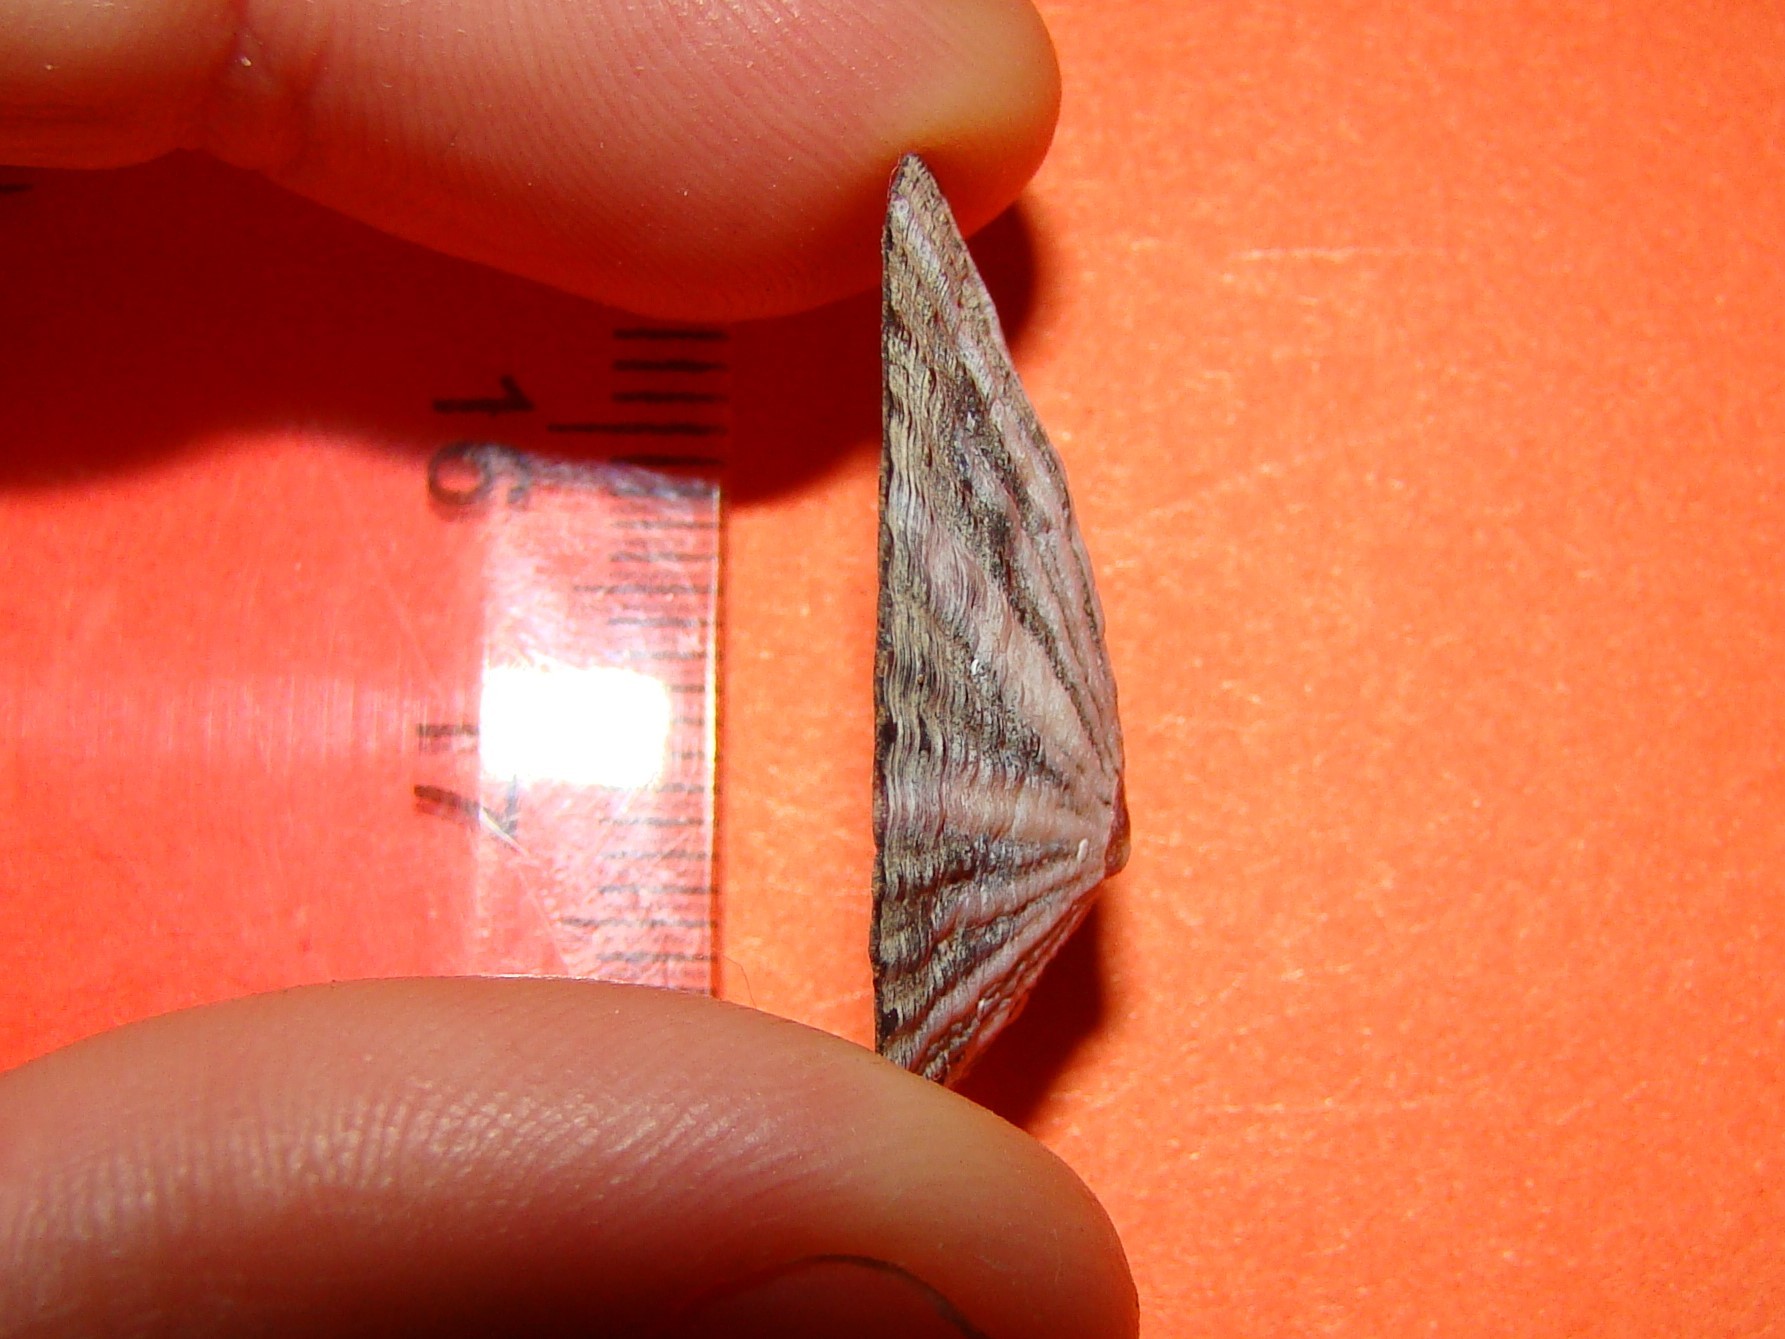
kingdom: Animalia
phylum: Mollusca
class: Gastropoda
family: Nacellidae
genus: Cellana
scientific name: Cellana stellifera
